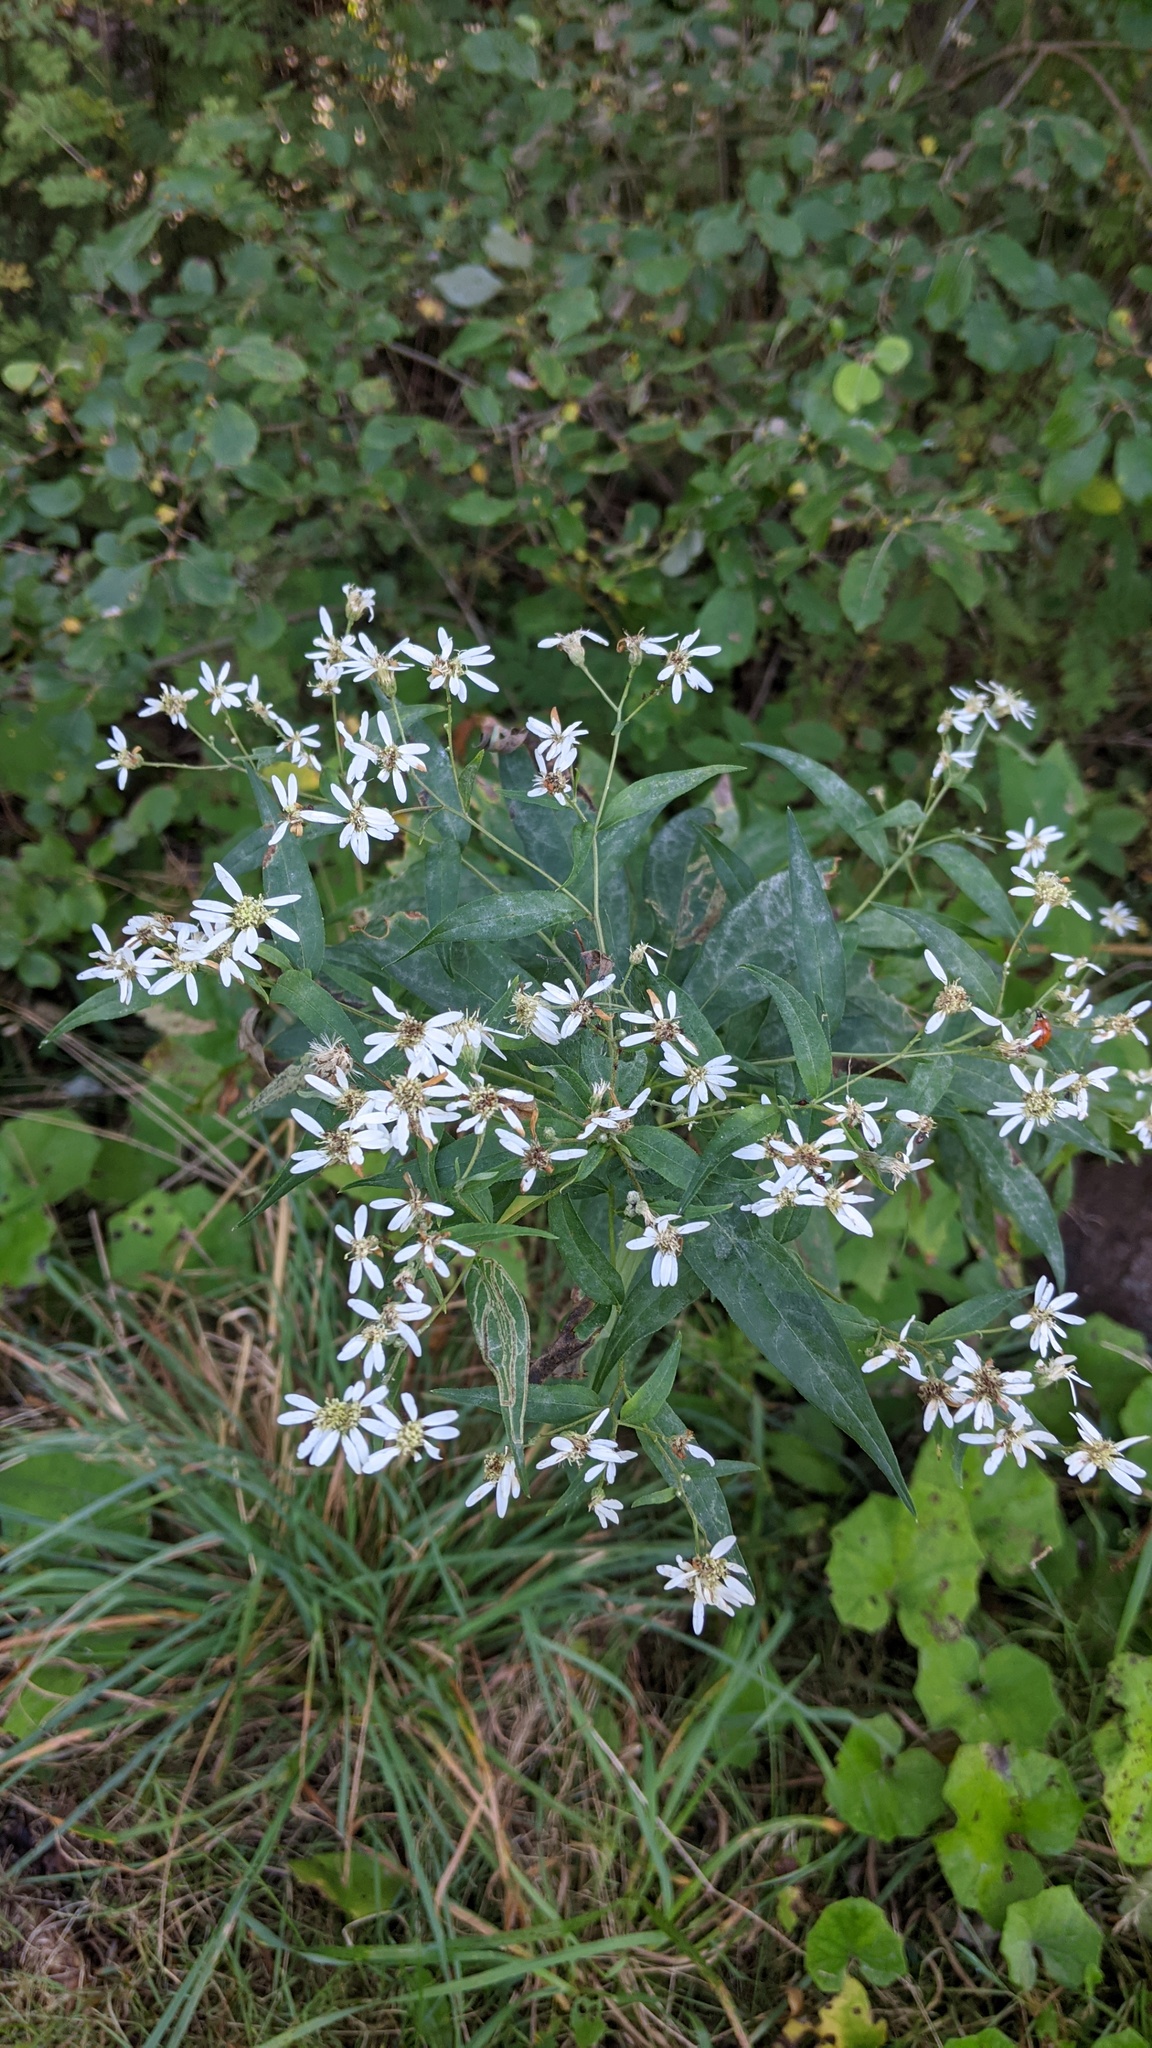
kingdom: Plantae
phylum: Tracheophyta
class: Magnoliopsida
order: Asterales
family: Asteraceae
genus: Doellingeria
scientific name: Doellingeria umbellata
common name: Flat-top white aster
